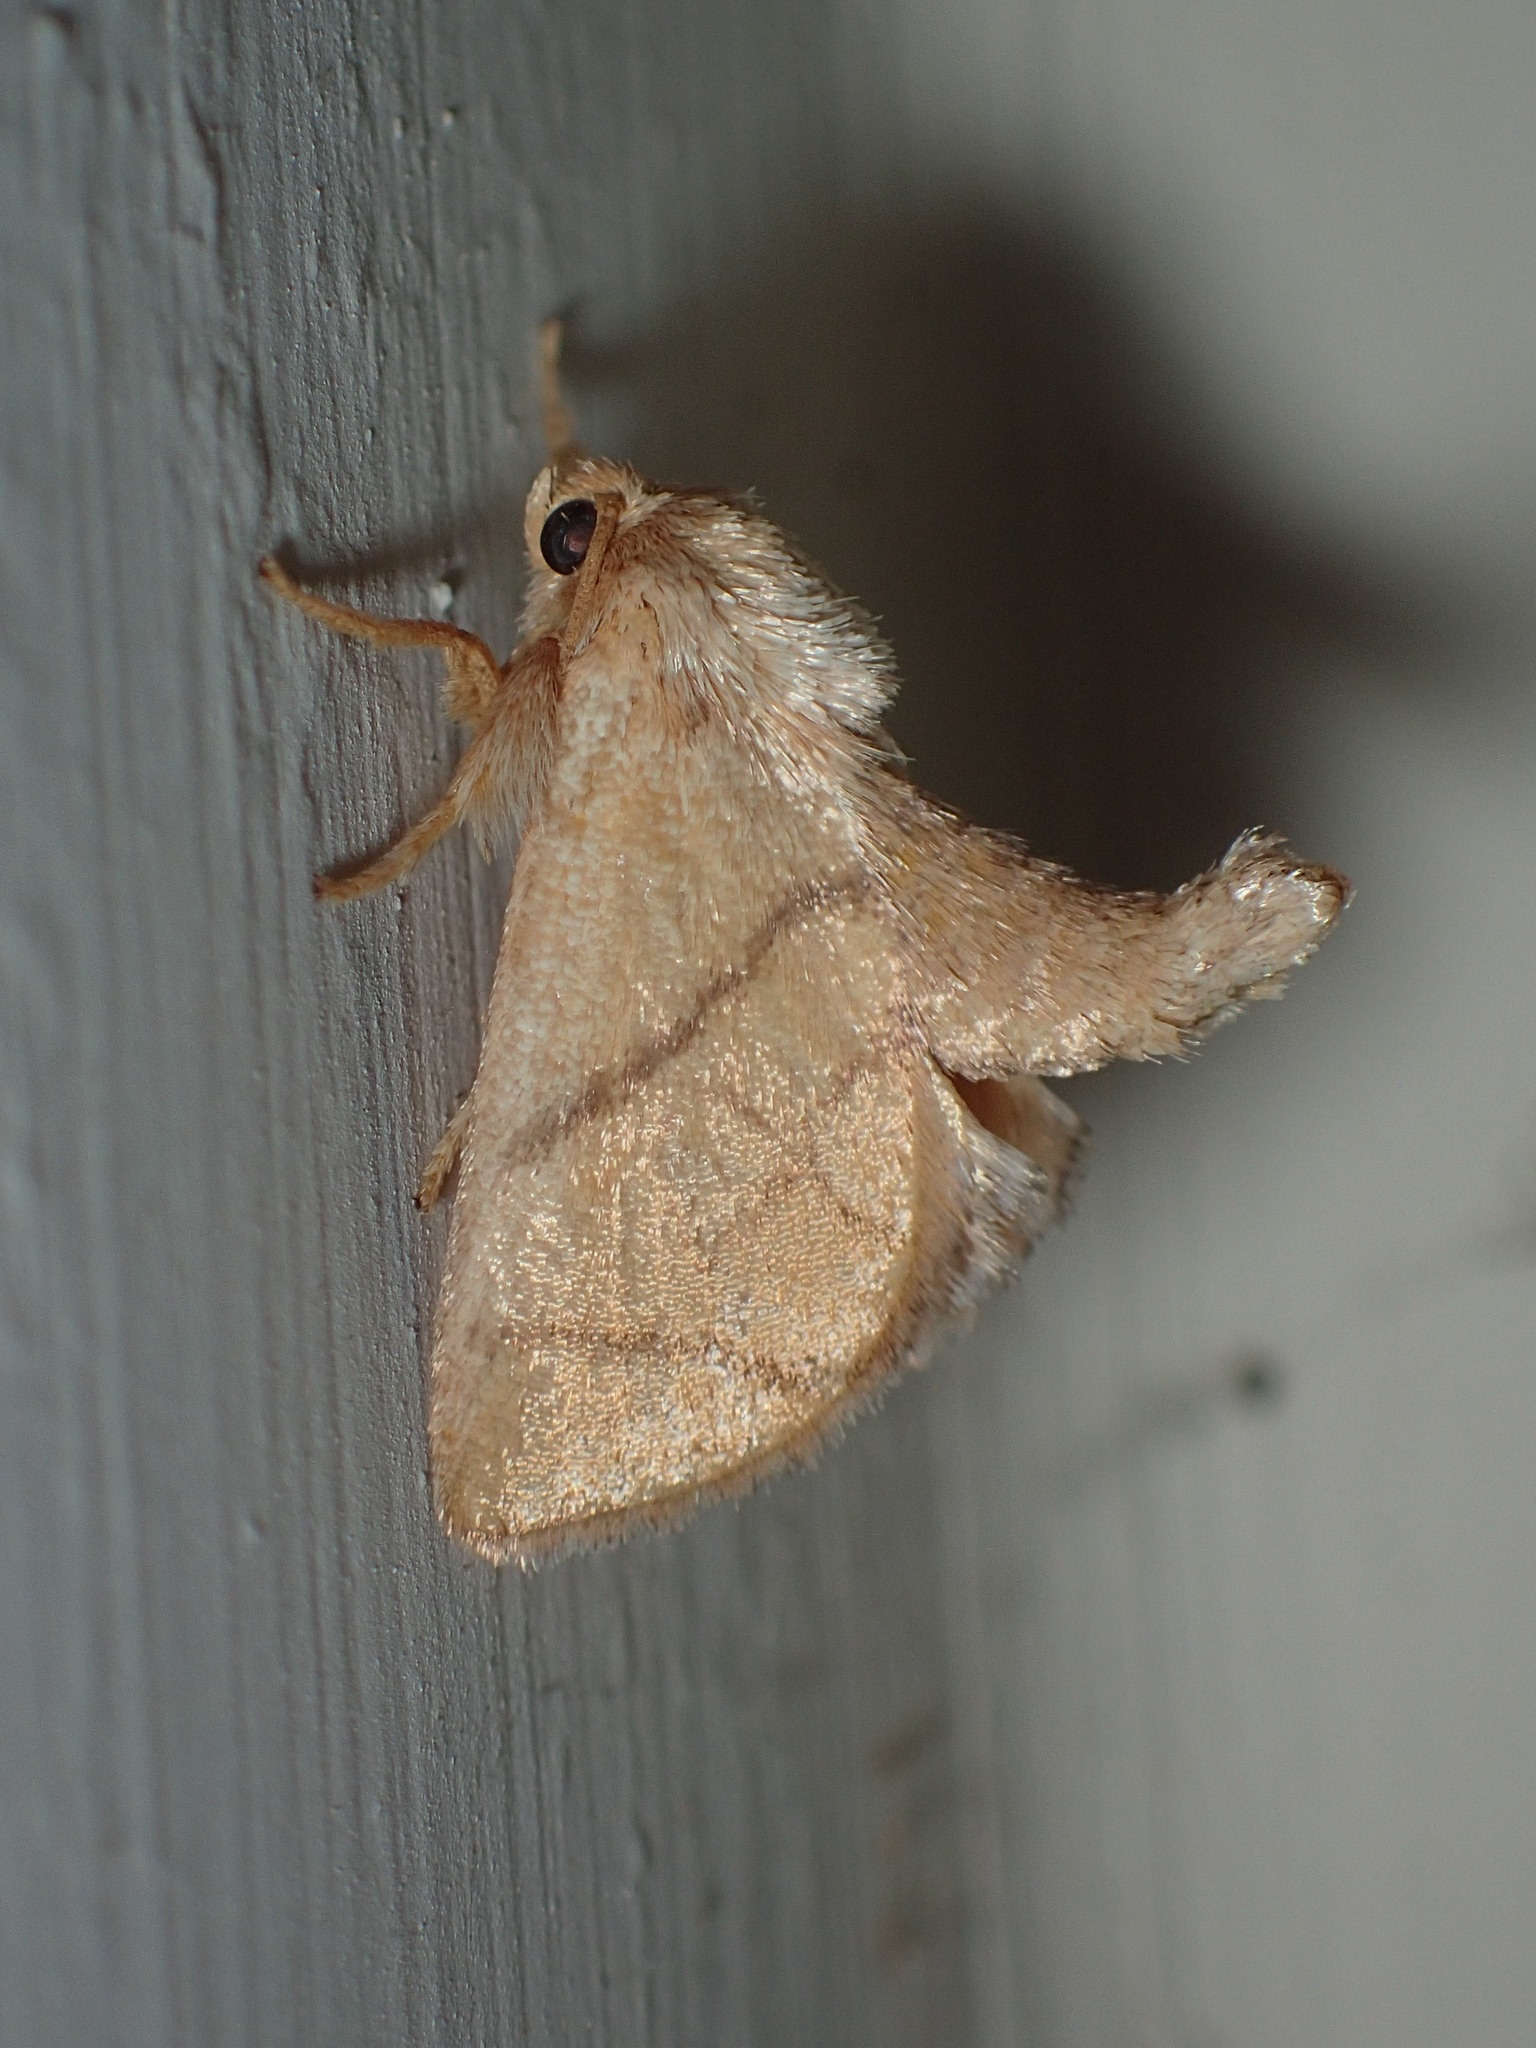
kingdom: Animalia
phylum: Arthropoda
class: Insecta
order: Lepidoptera
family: Limacodidae
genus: Apoda
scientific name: Apoda y-inversa
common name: Yellow-collared slug moth
